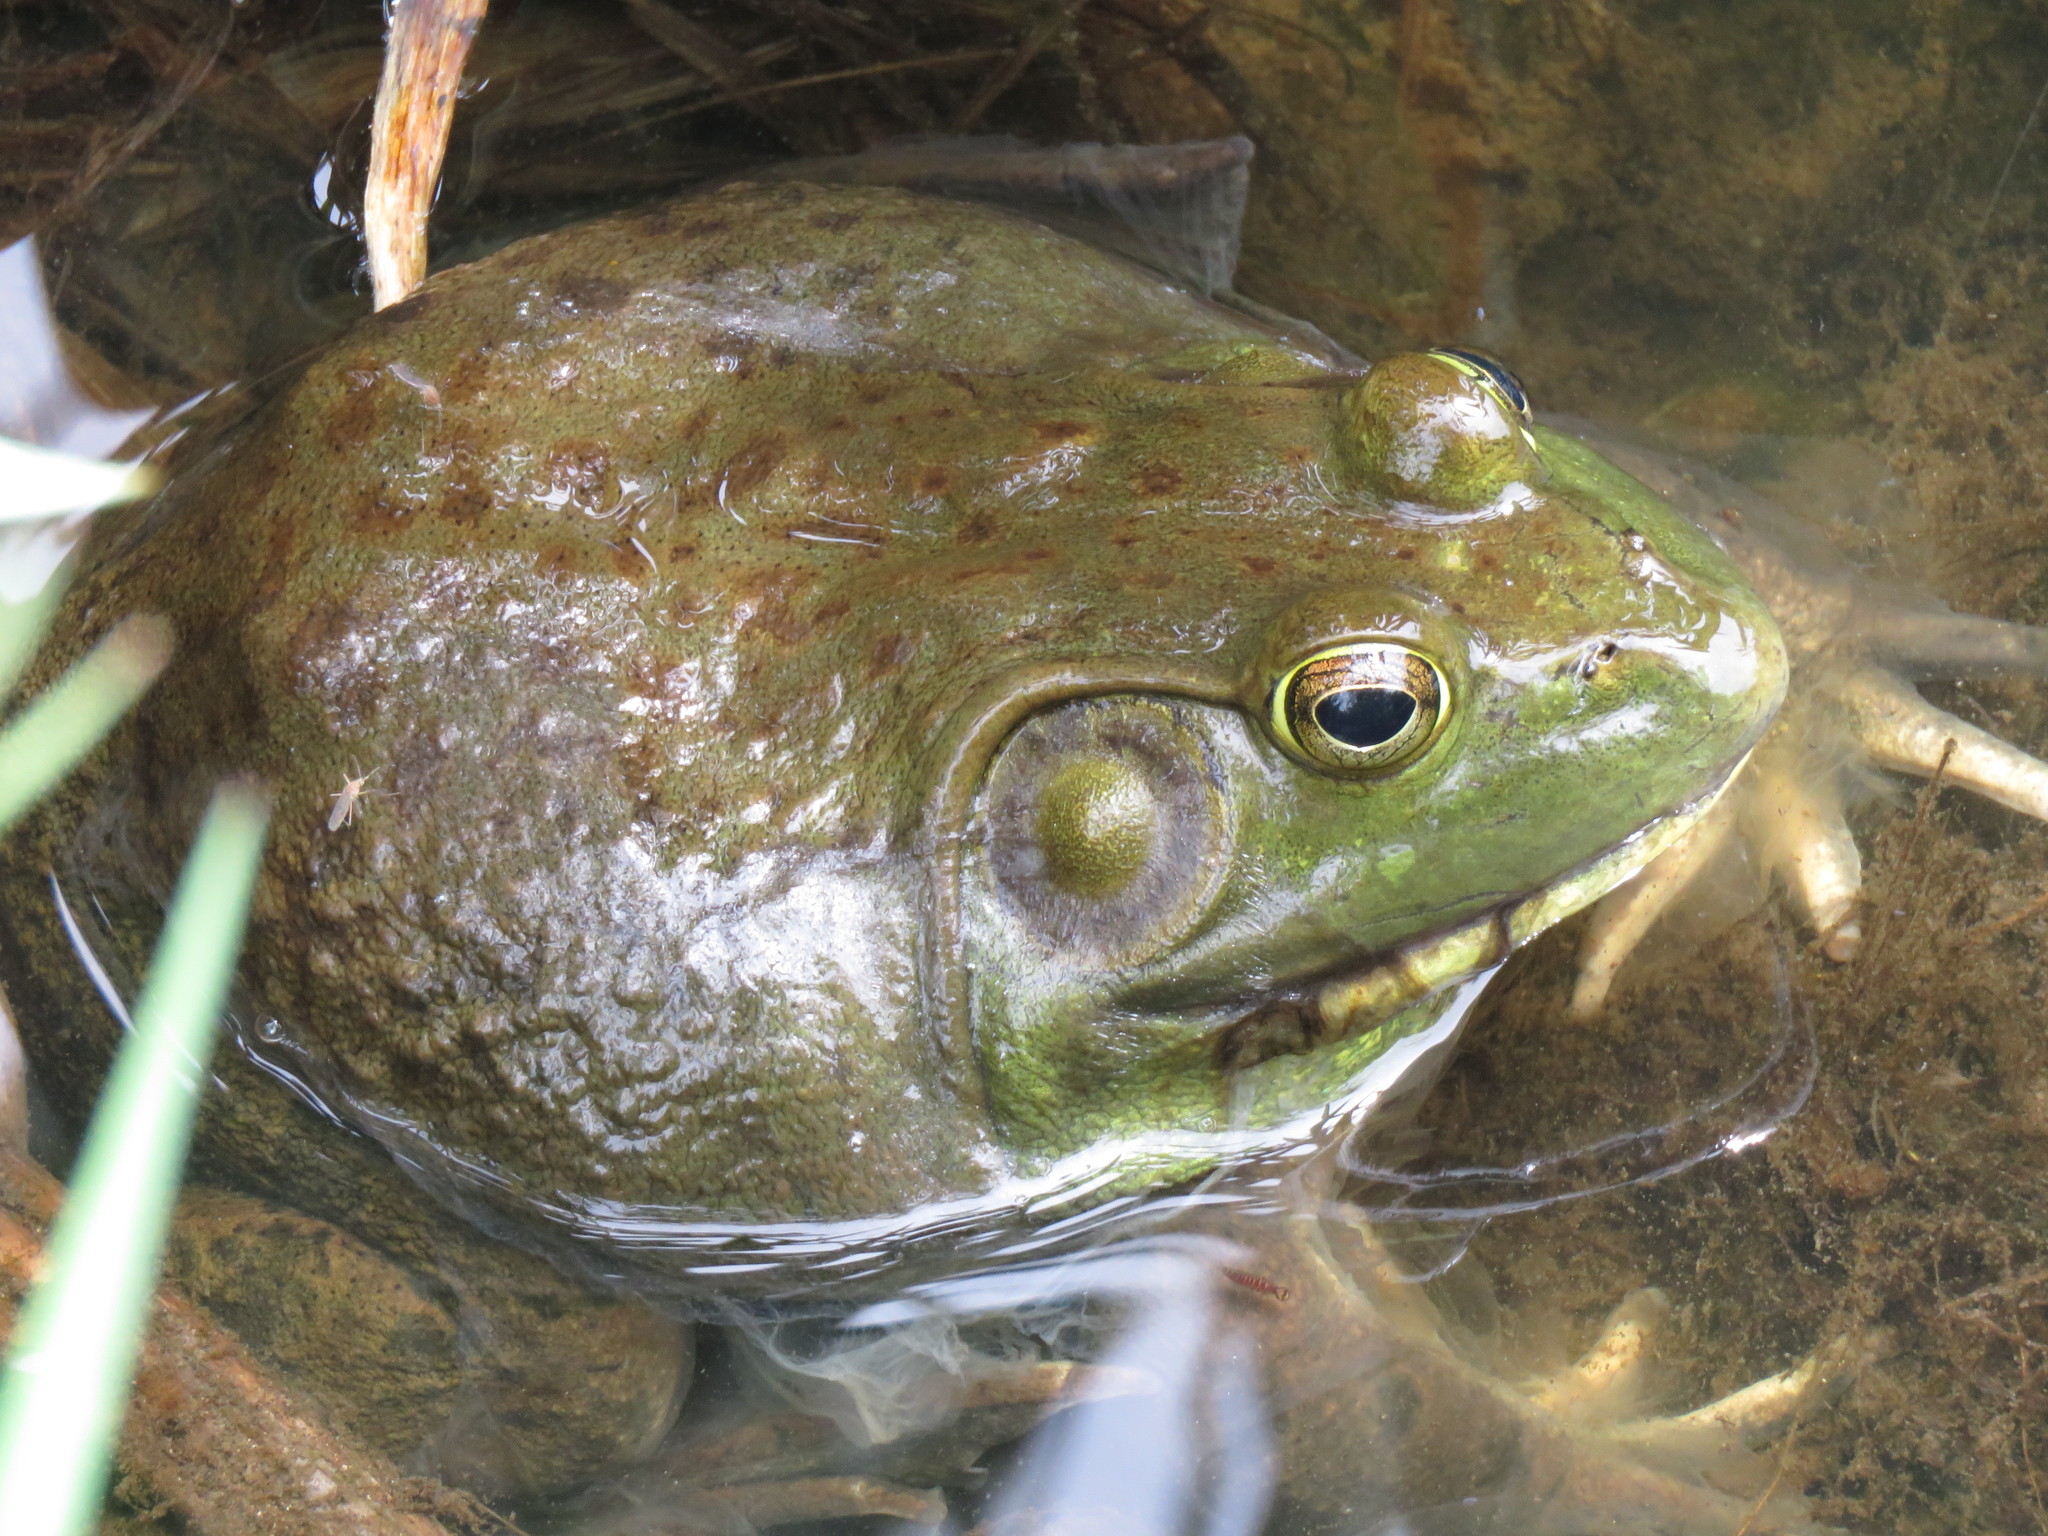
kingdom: Animalia
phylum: Chordata
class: Amphibia
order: Anura
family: Ranidae
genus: Lithobates
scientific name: Lithobates catesbeianus
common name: American bullfrog
